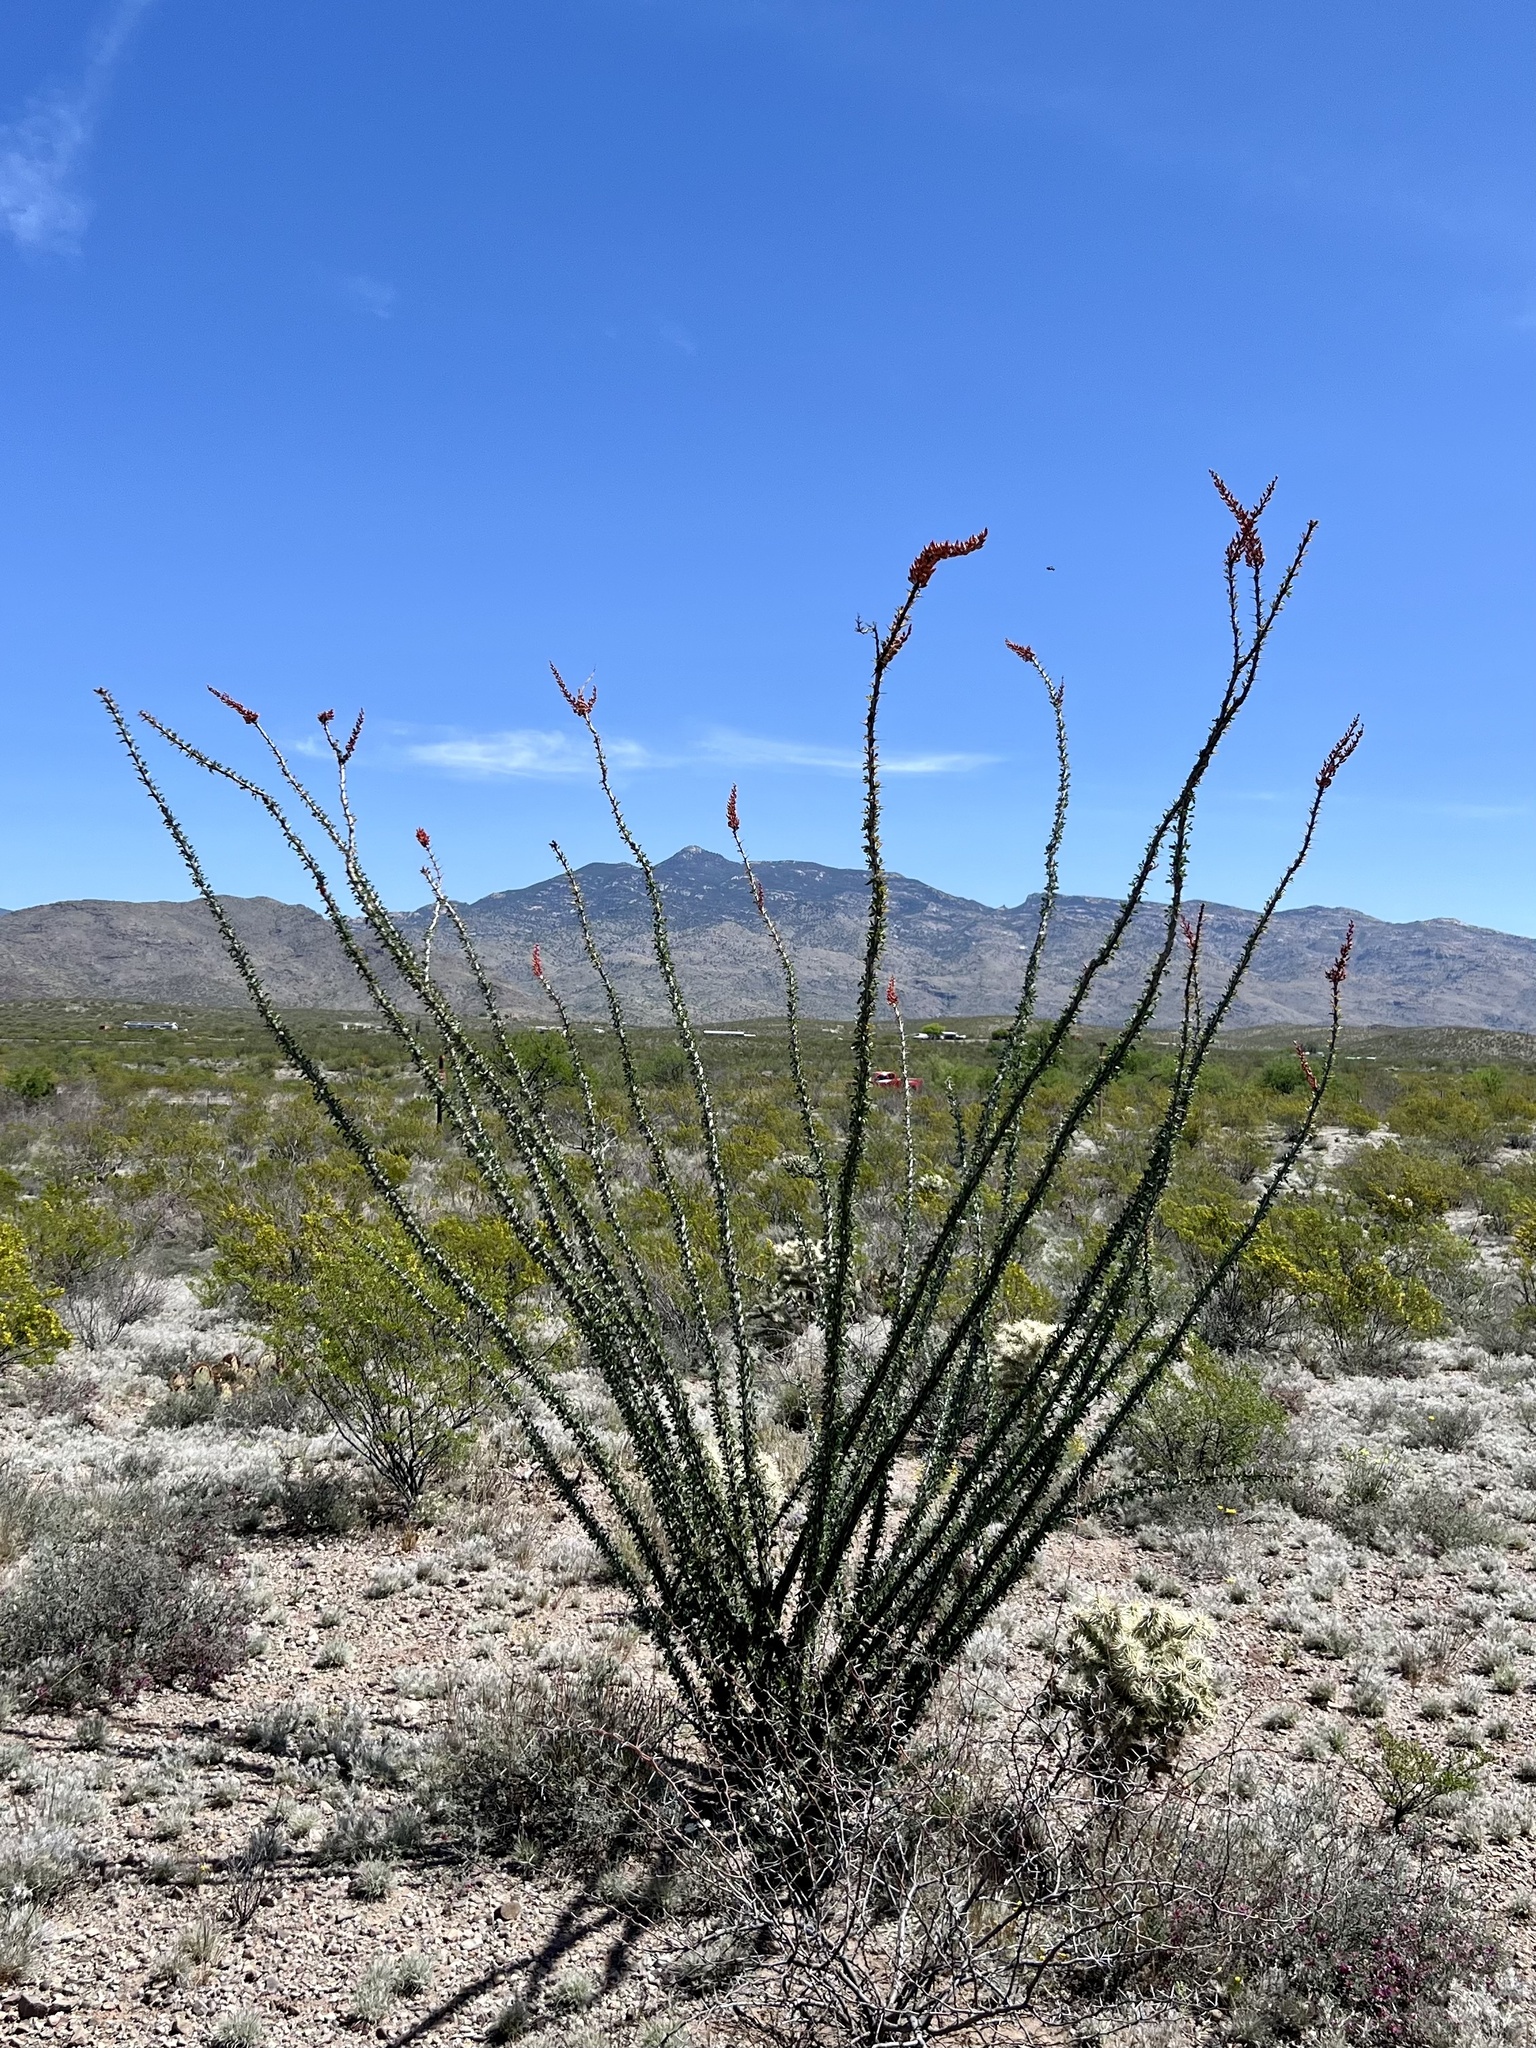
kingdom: Plantae
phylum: Tracheophyta
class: Magnoliopsida
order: Ericales
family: Fouquieriaceae
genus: Fouquieria
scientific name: Fouquieria splendens
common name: Vine-cactus
